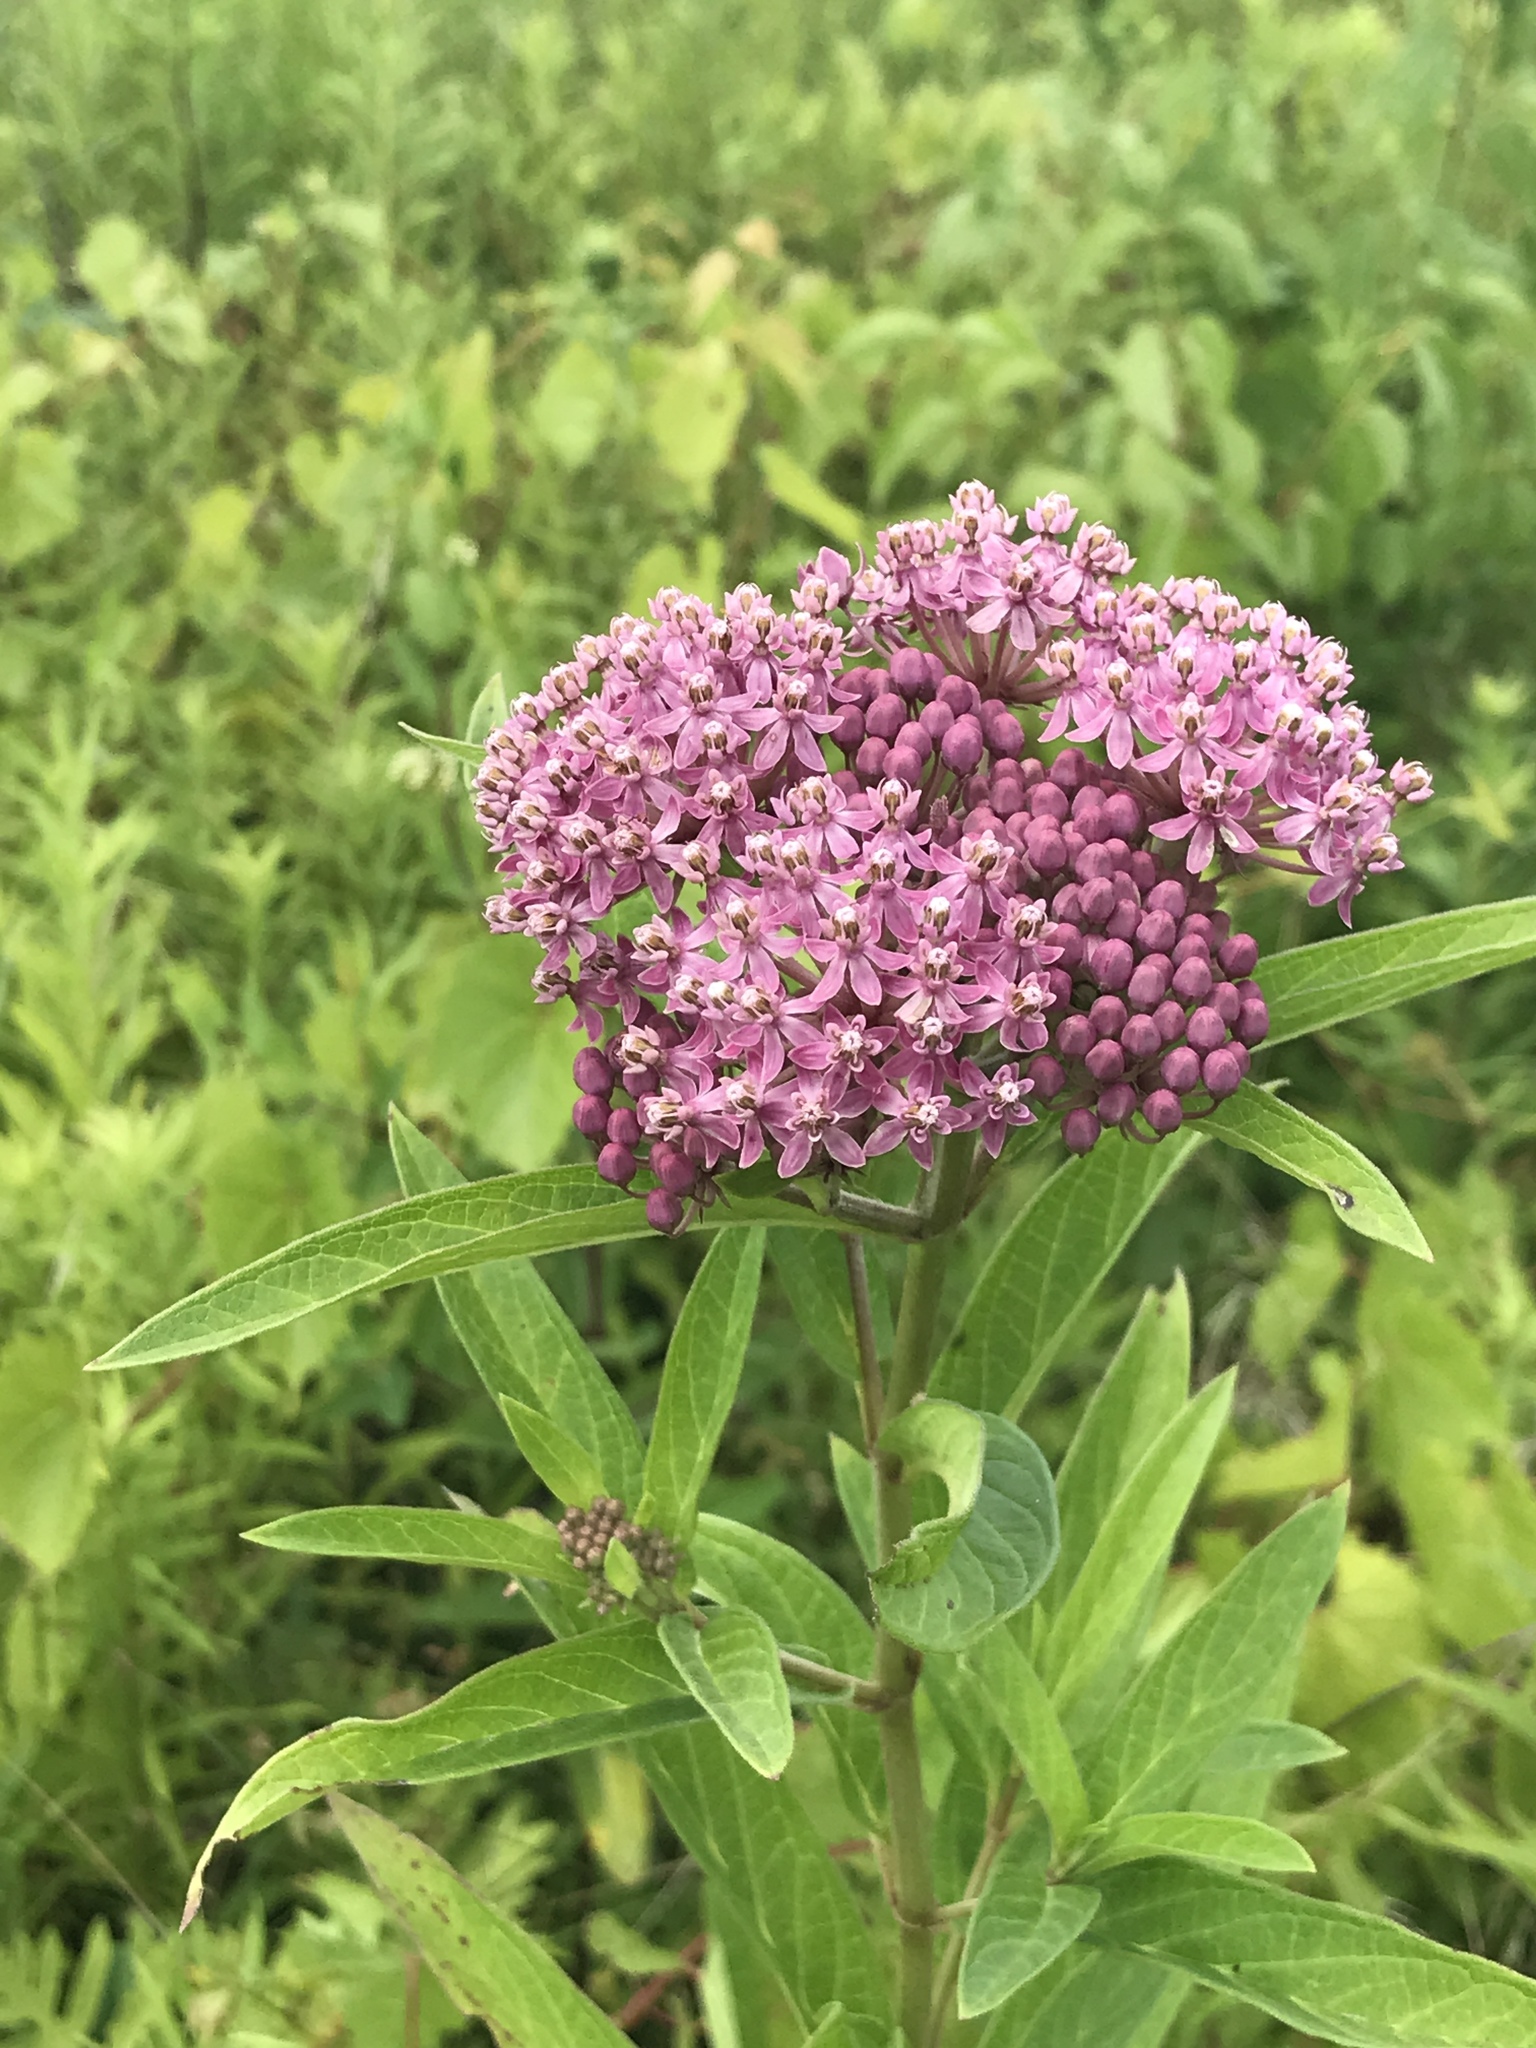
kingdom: Plantae
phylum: Tracheophyta
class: Magnoliopsida
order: Gentianales
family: Apocynaceae
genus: Asclepias
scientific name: Asclepias incarnata
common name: Swamp milkweed
